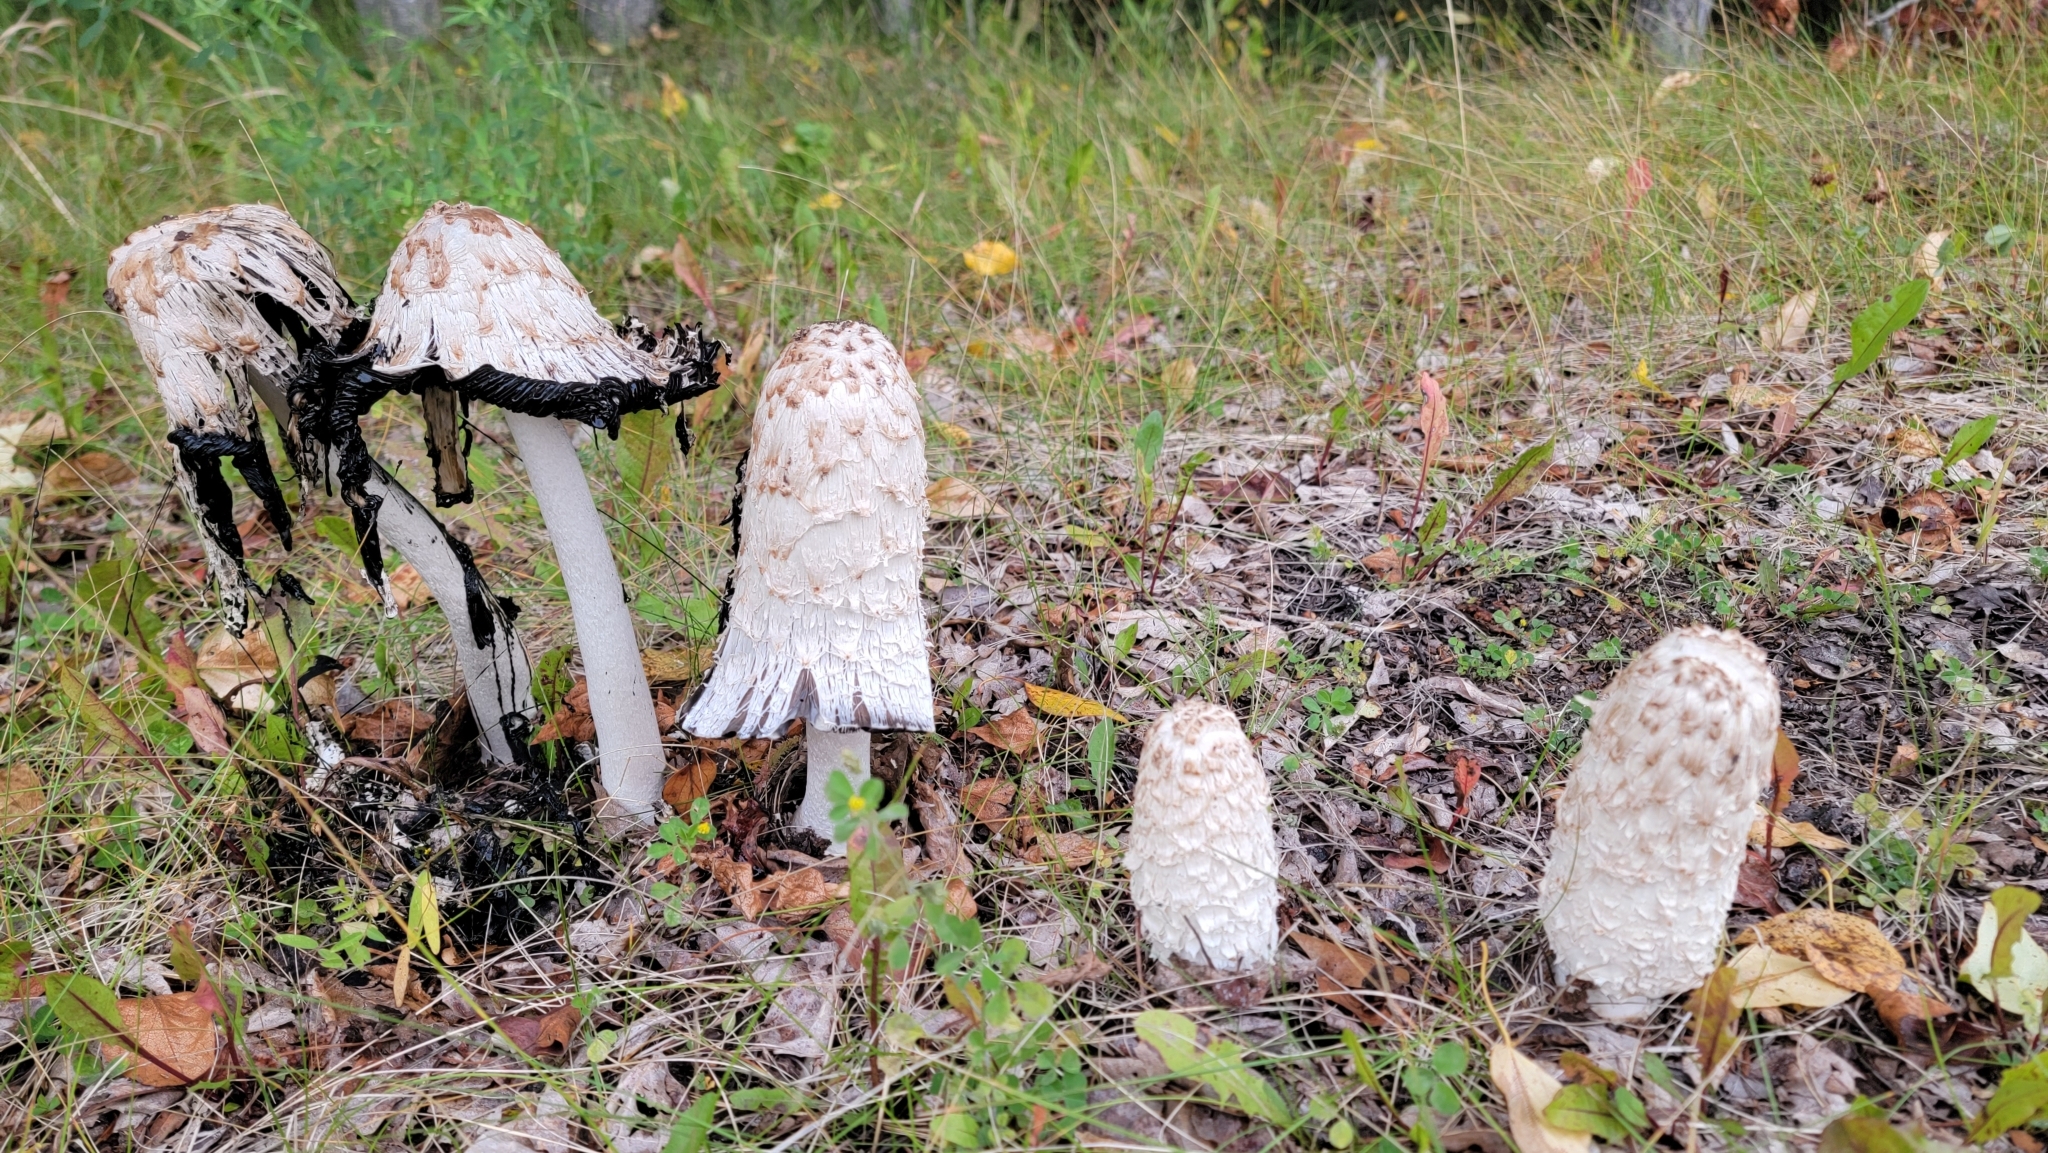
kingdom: Fungi
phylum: Basidiomycota
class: Agaricomycetes
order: Agaricales
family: Agaricaceae
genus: Coprinus
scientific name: Coprinus comatus
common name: Lawyer's wig
